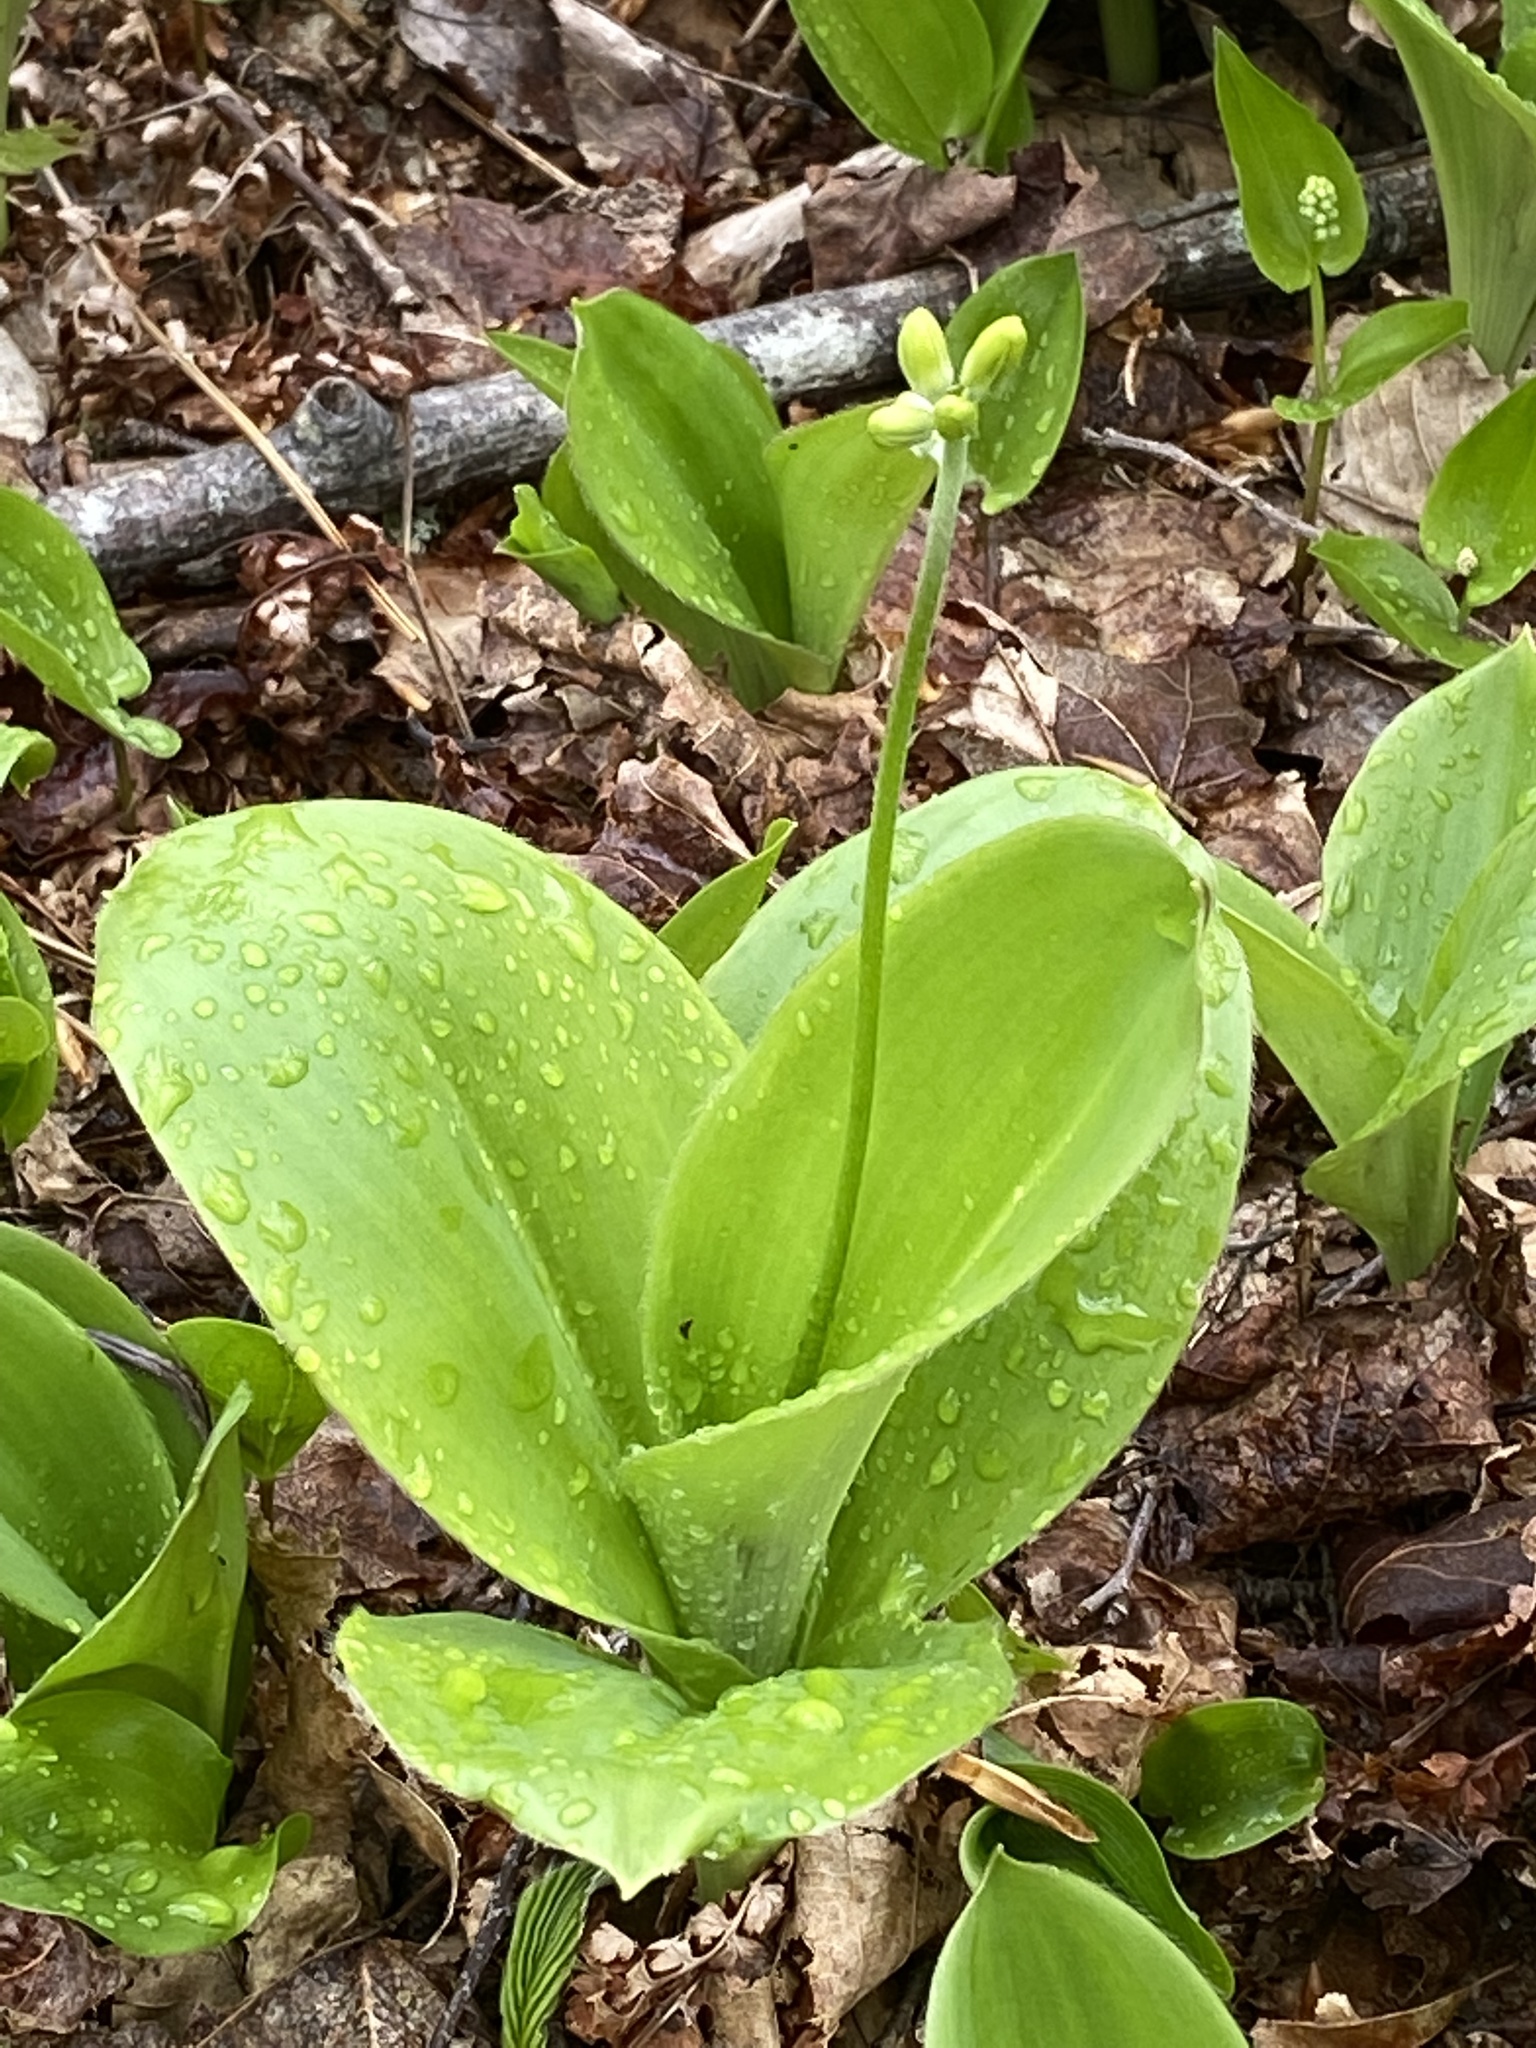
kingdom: Plantae
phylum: Tracheophyta
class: Liliopsida
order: Liliales
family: Liliaceae
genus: Clintonia
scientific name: Clintonia borealis
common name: Yellow clintonia
